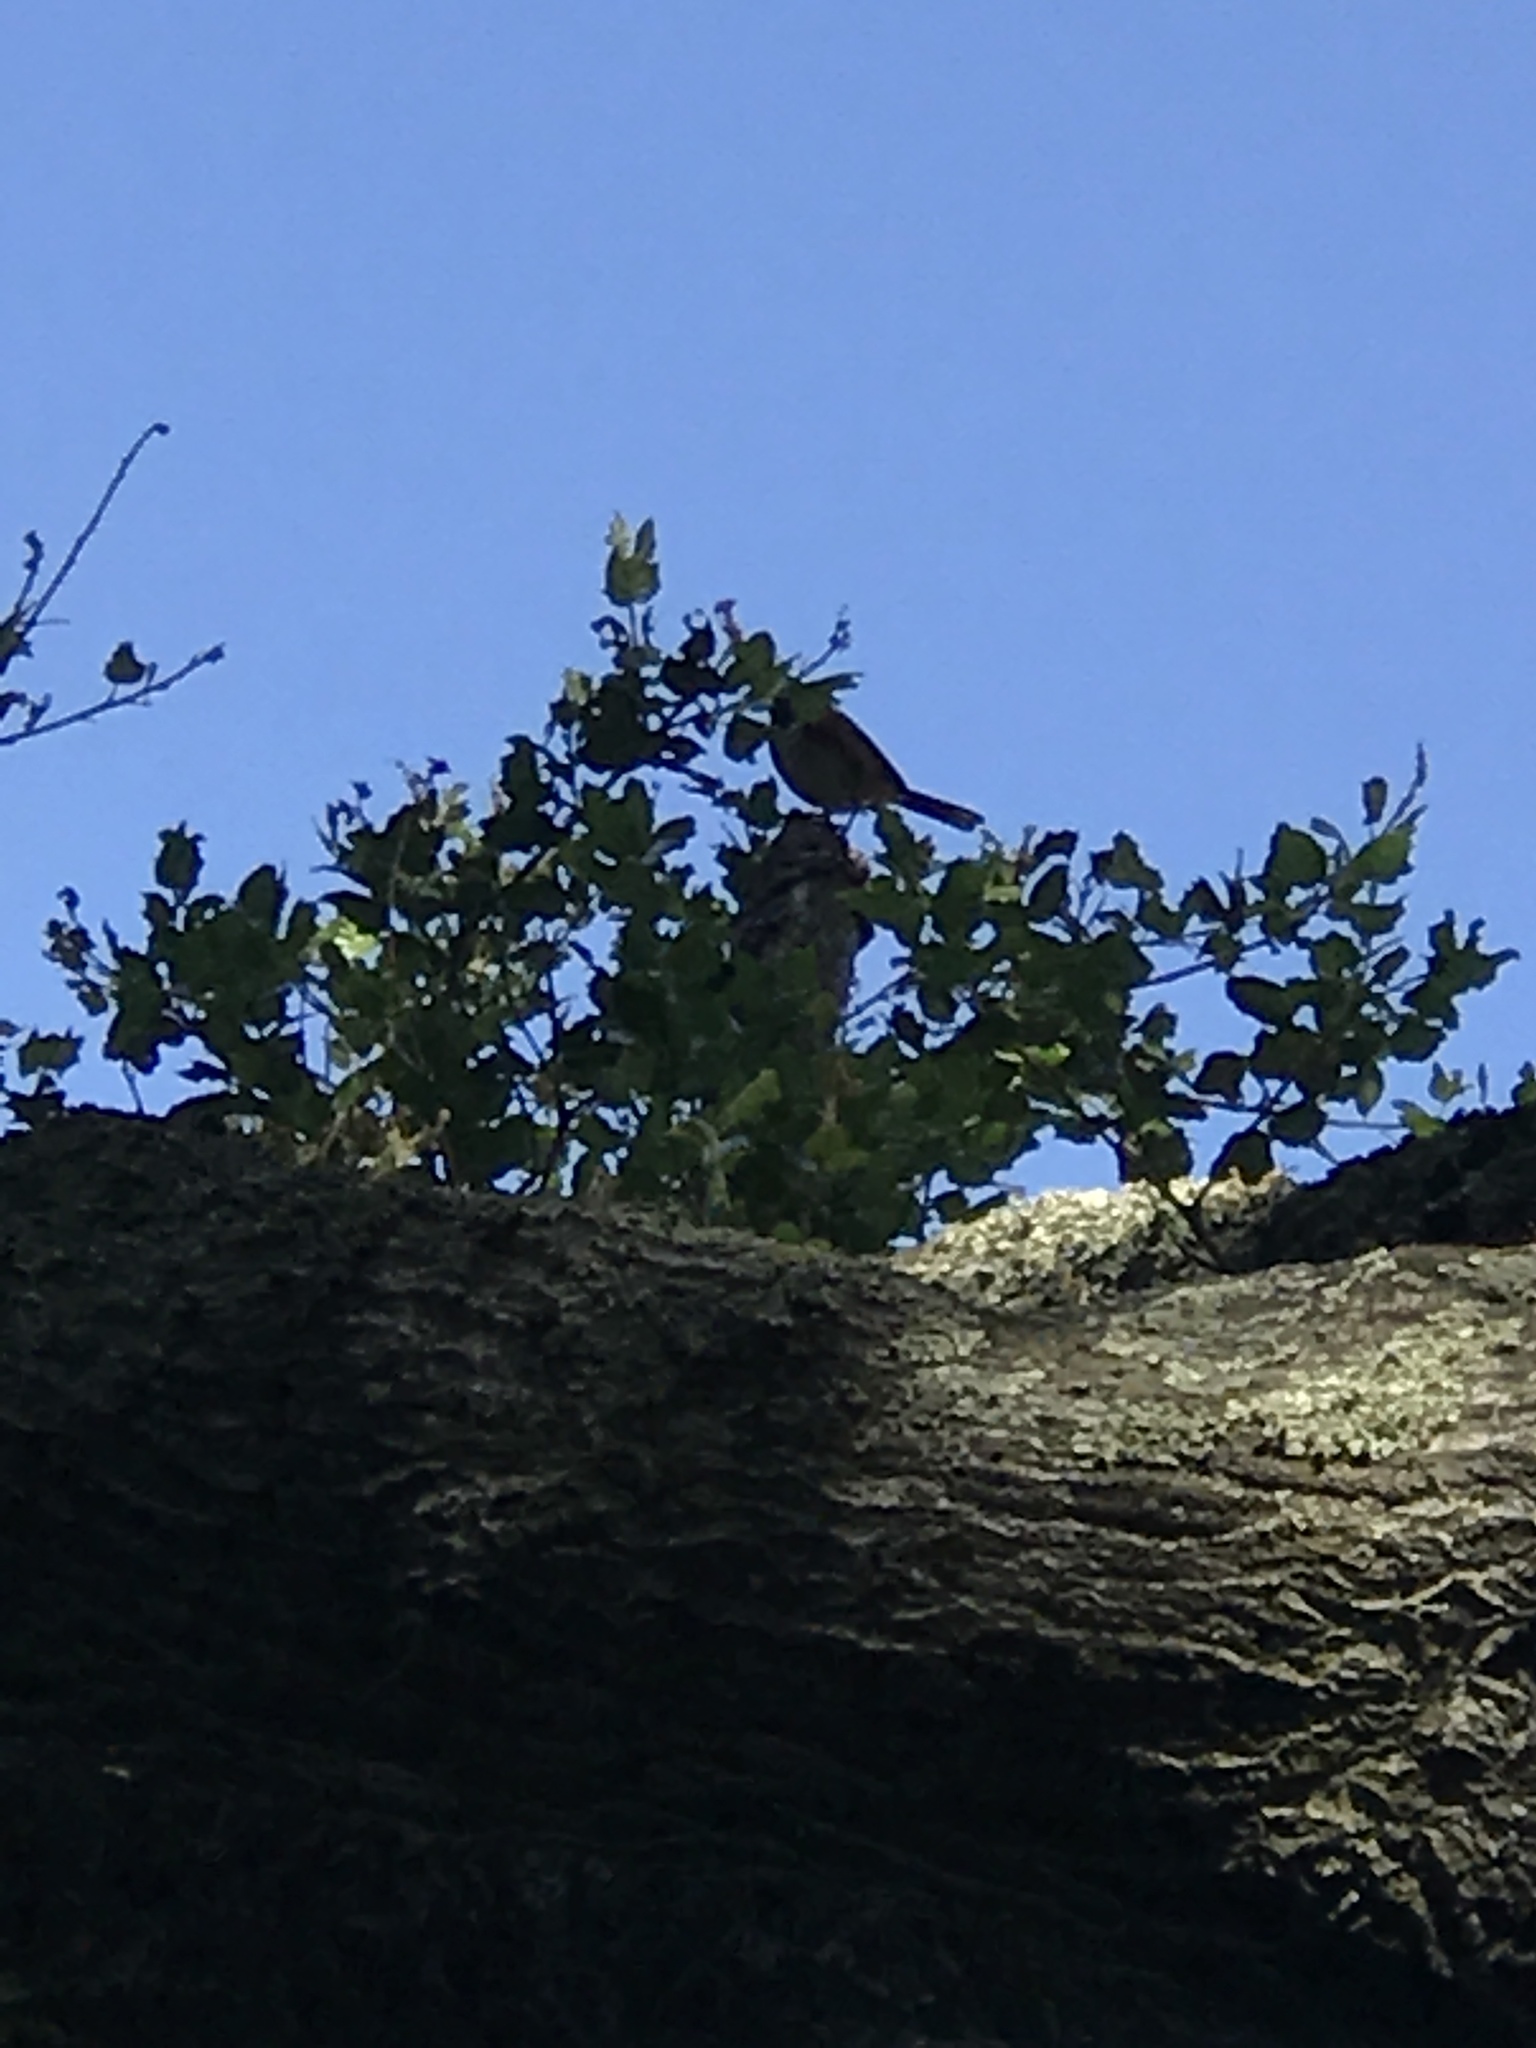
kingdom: Animalia
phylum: Chordata
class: Aves
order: Passeriformes
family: Passerellidae
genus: Pipilo
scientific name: Pipilo maculatus
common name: Spotted towhee
